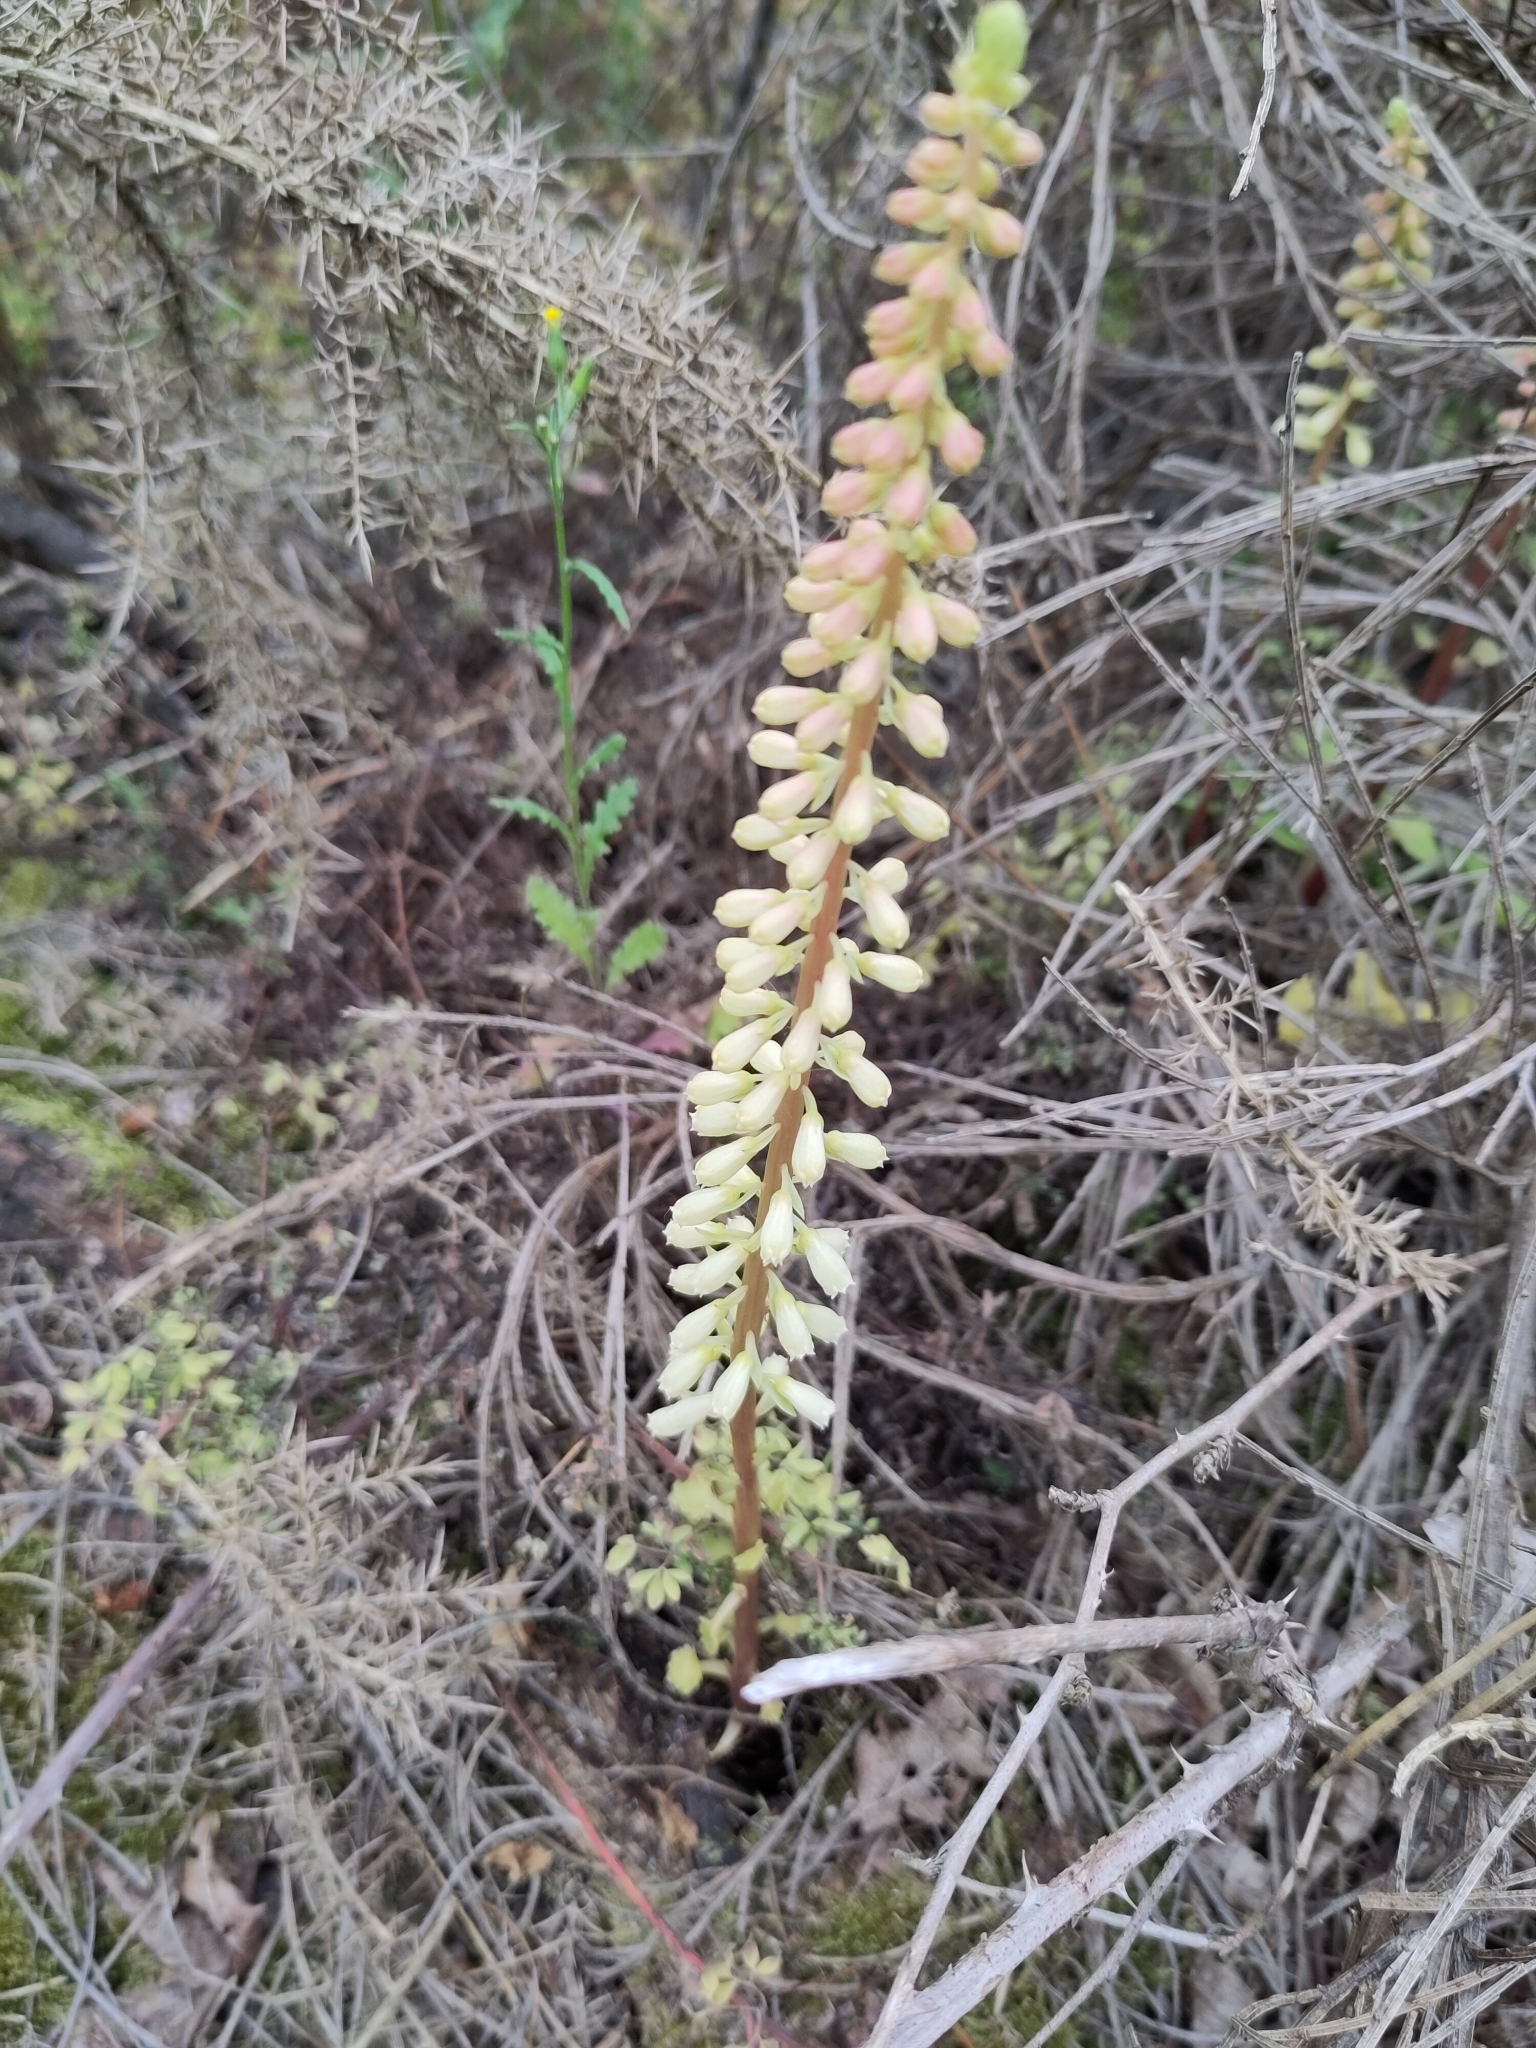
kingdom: Plantae
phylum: Tracheophyta
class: Magnoliopsida
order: Saxifragales
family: Crassulaceae
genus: Umbilicus
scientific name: Umbilicus rupestris
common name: Navelwort
